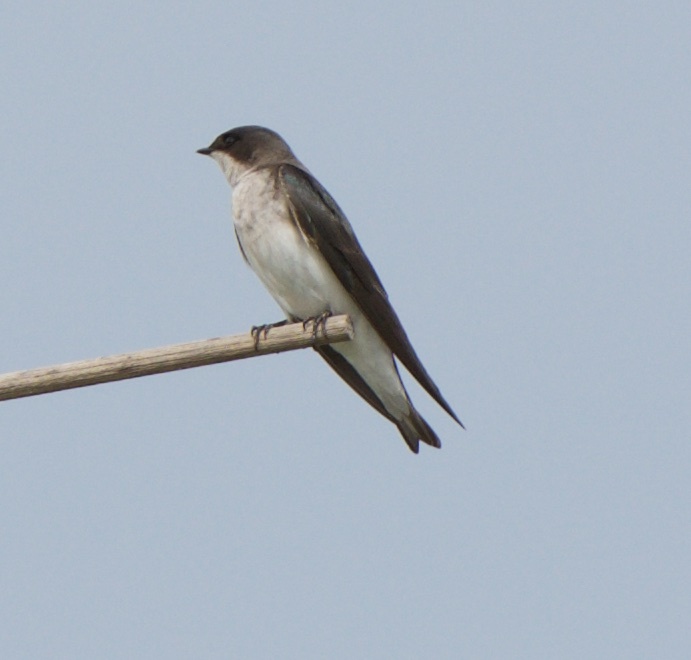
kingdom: Animalia
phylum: Chordata
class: Aves
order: Passeriformes
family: Hirundinidae
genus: Tachycineta
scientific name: Tachycineta bicolor
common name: Tree swallow
